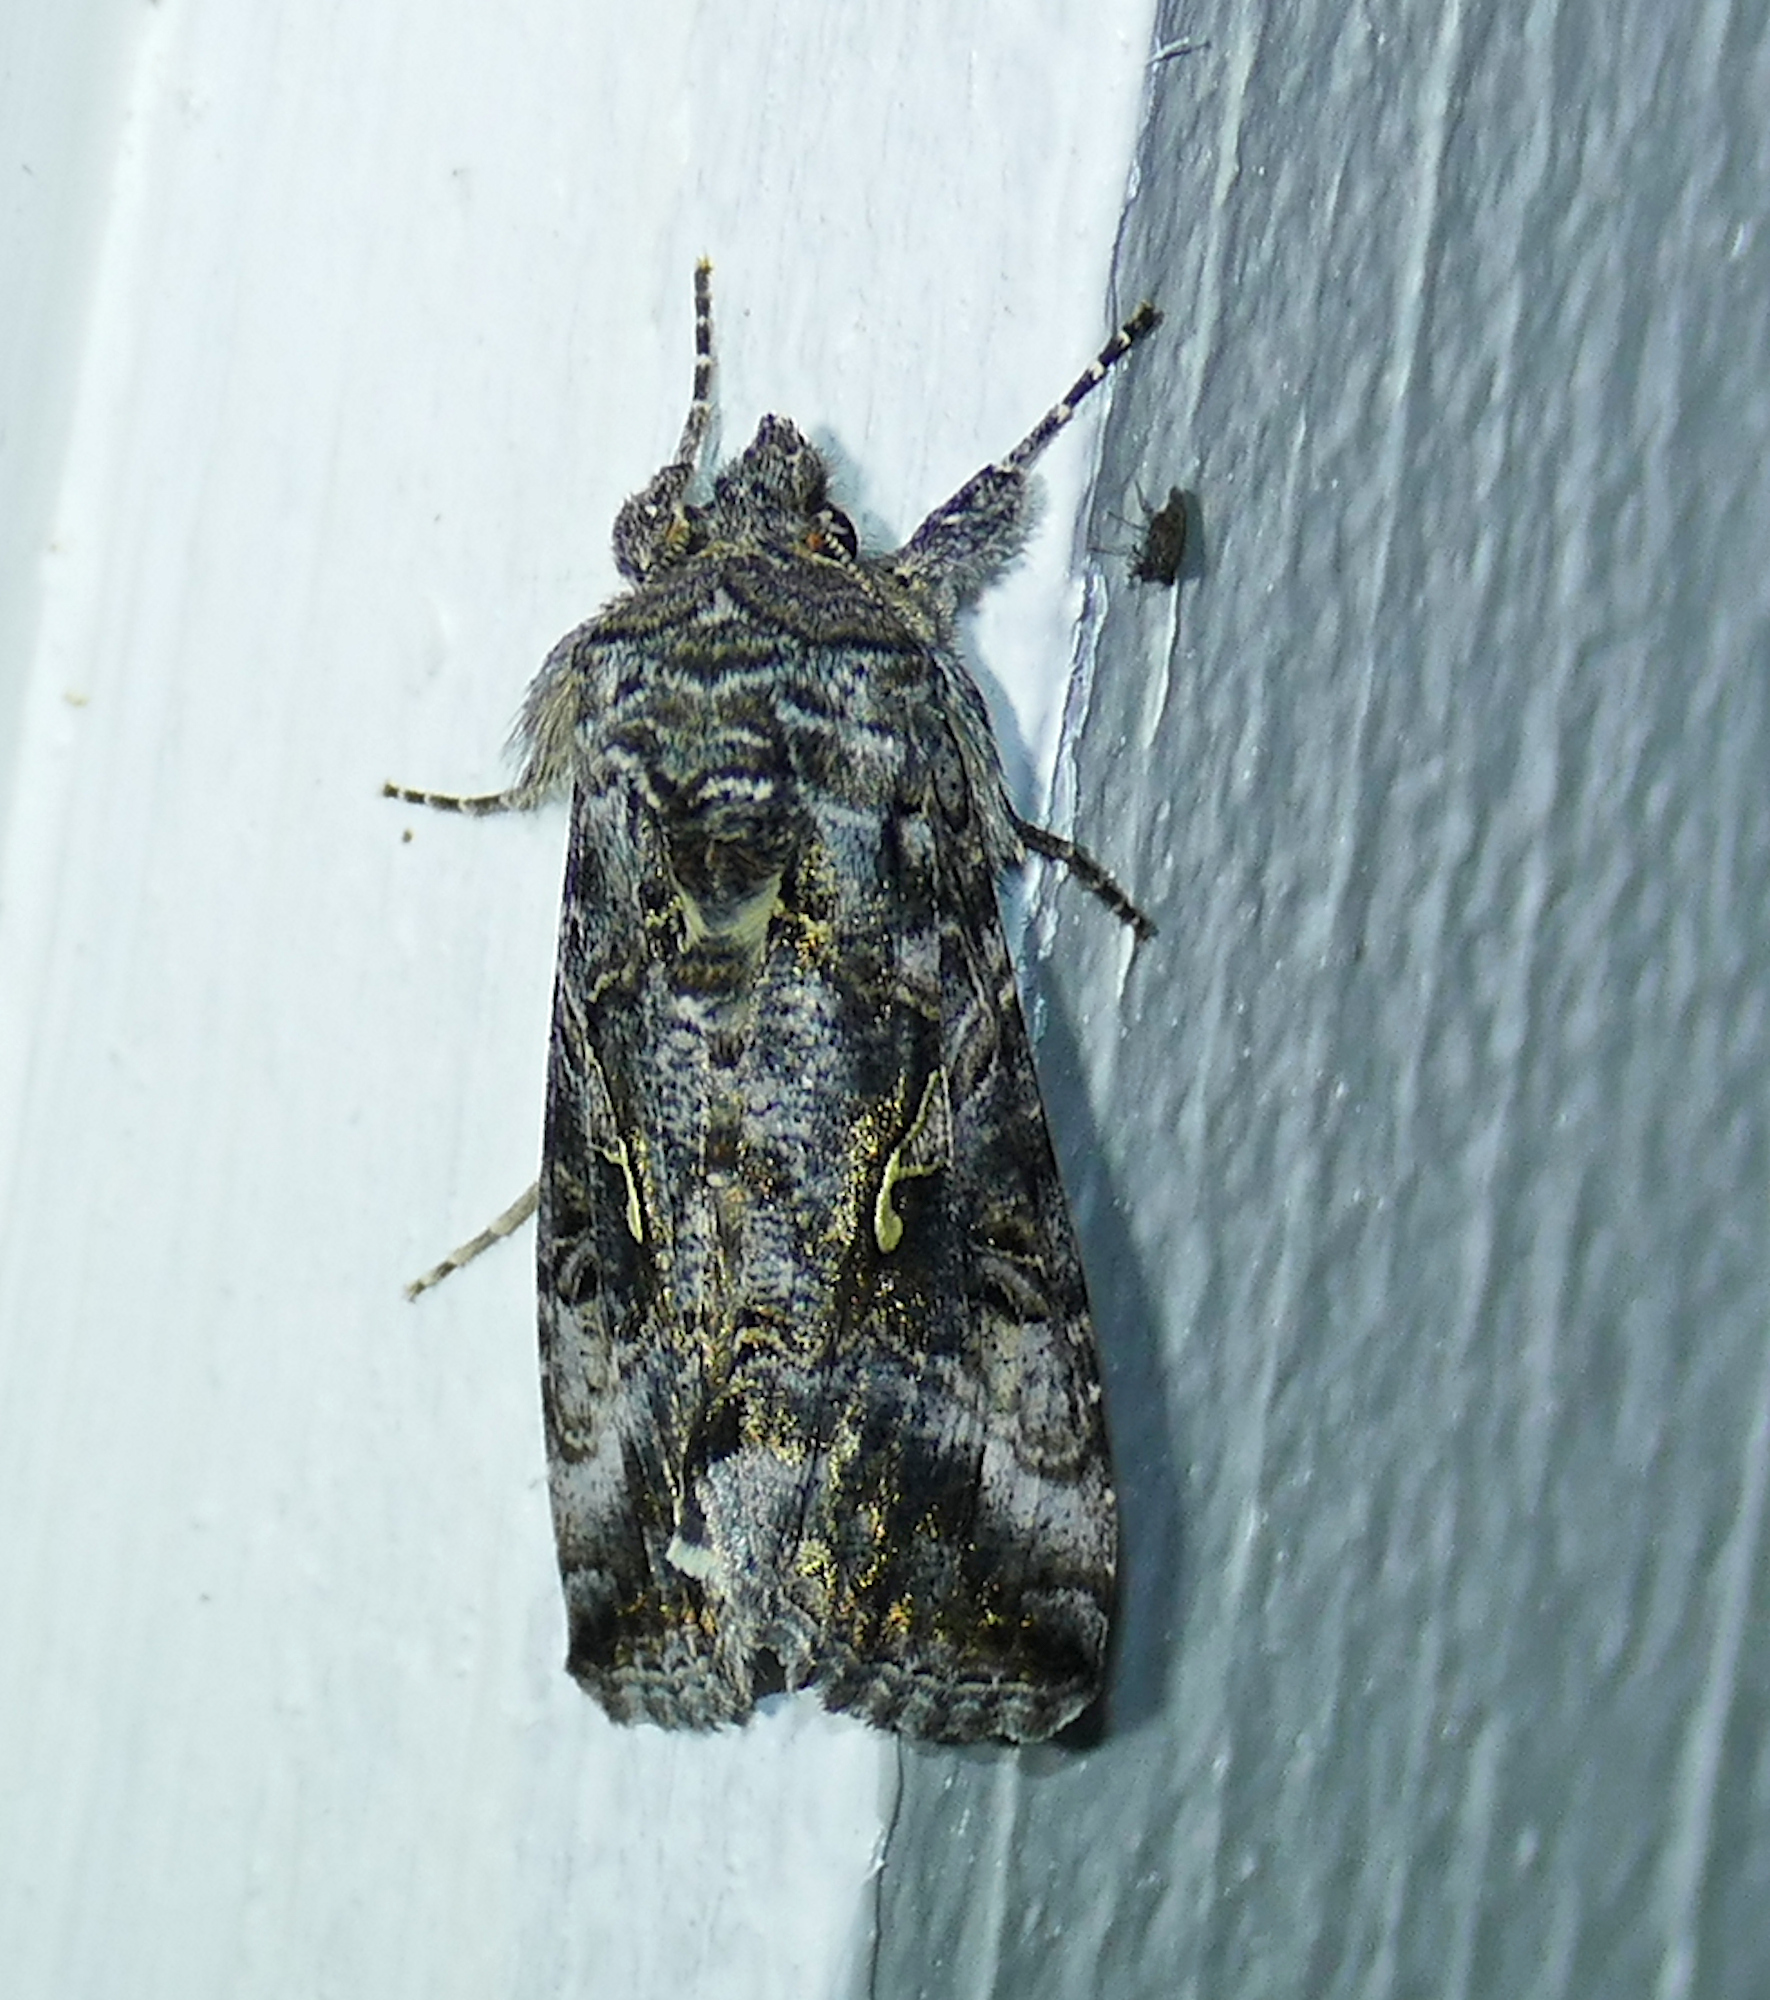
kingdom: Animalia
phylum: Arthropoda
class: Insecta
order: Lepidoptera
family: Noctuidae
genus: Autographa
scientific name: Autographa californica
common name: Alfalfa looper
